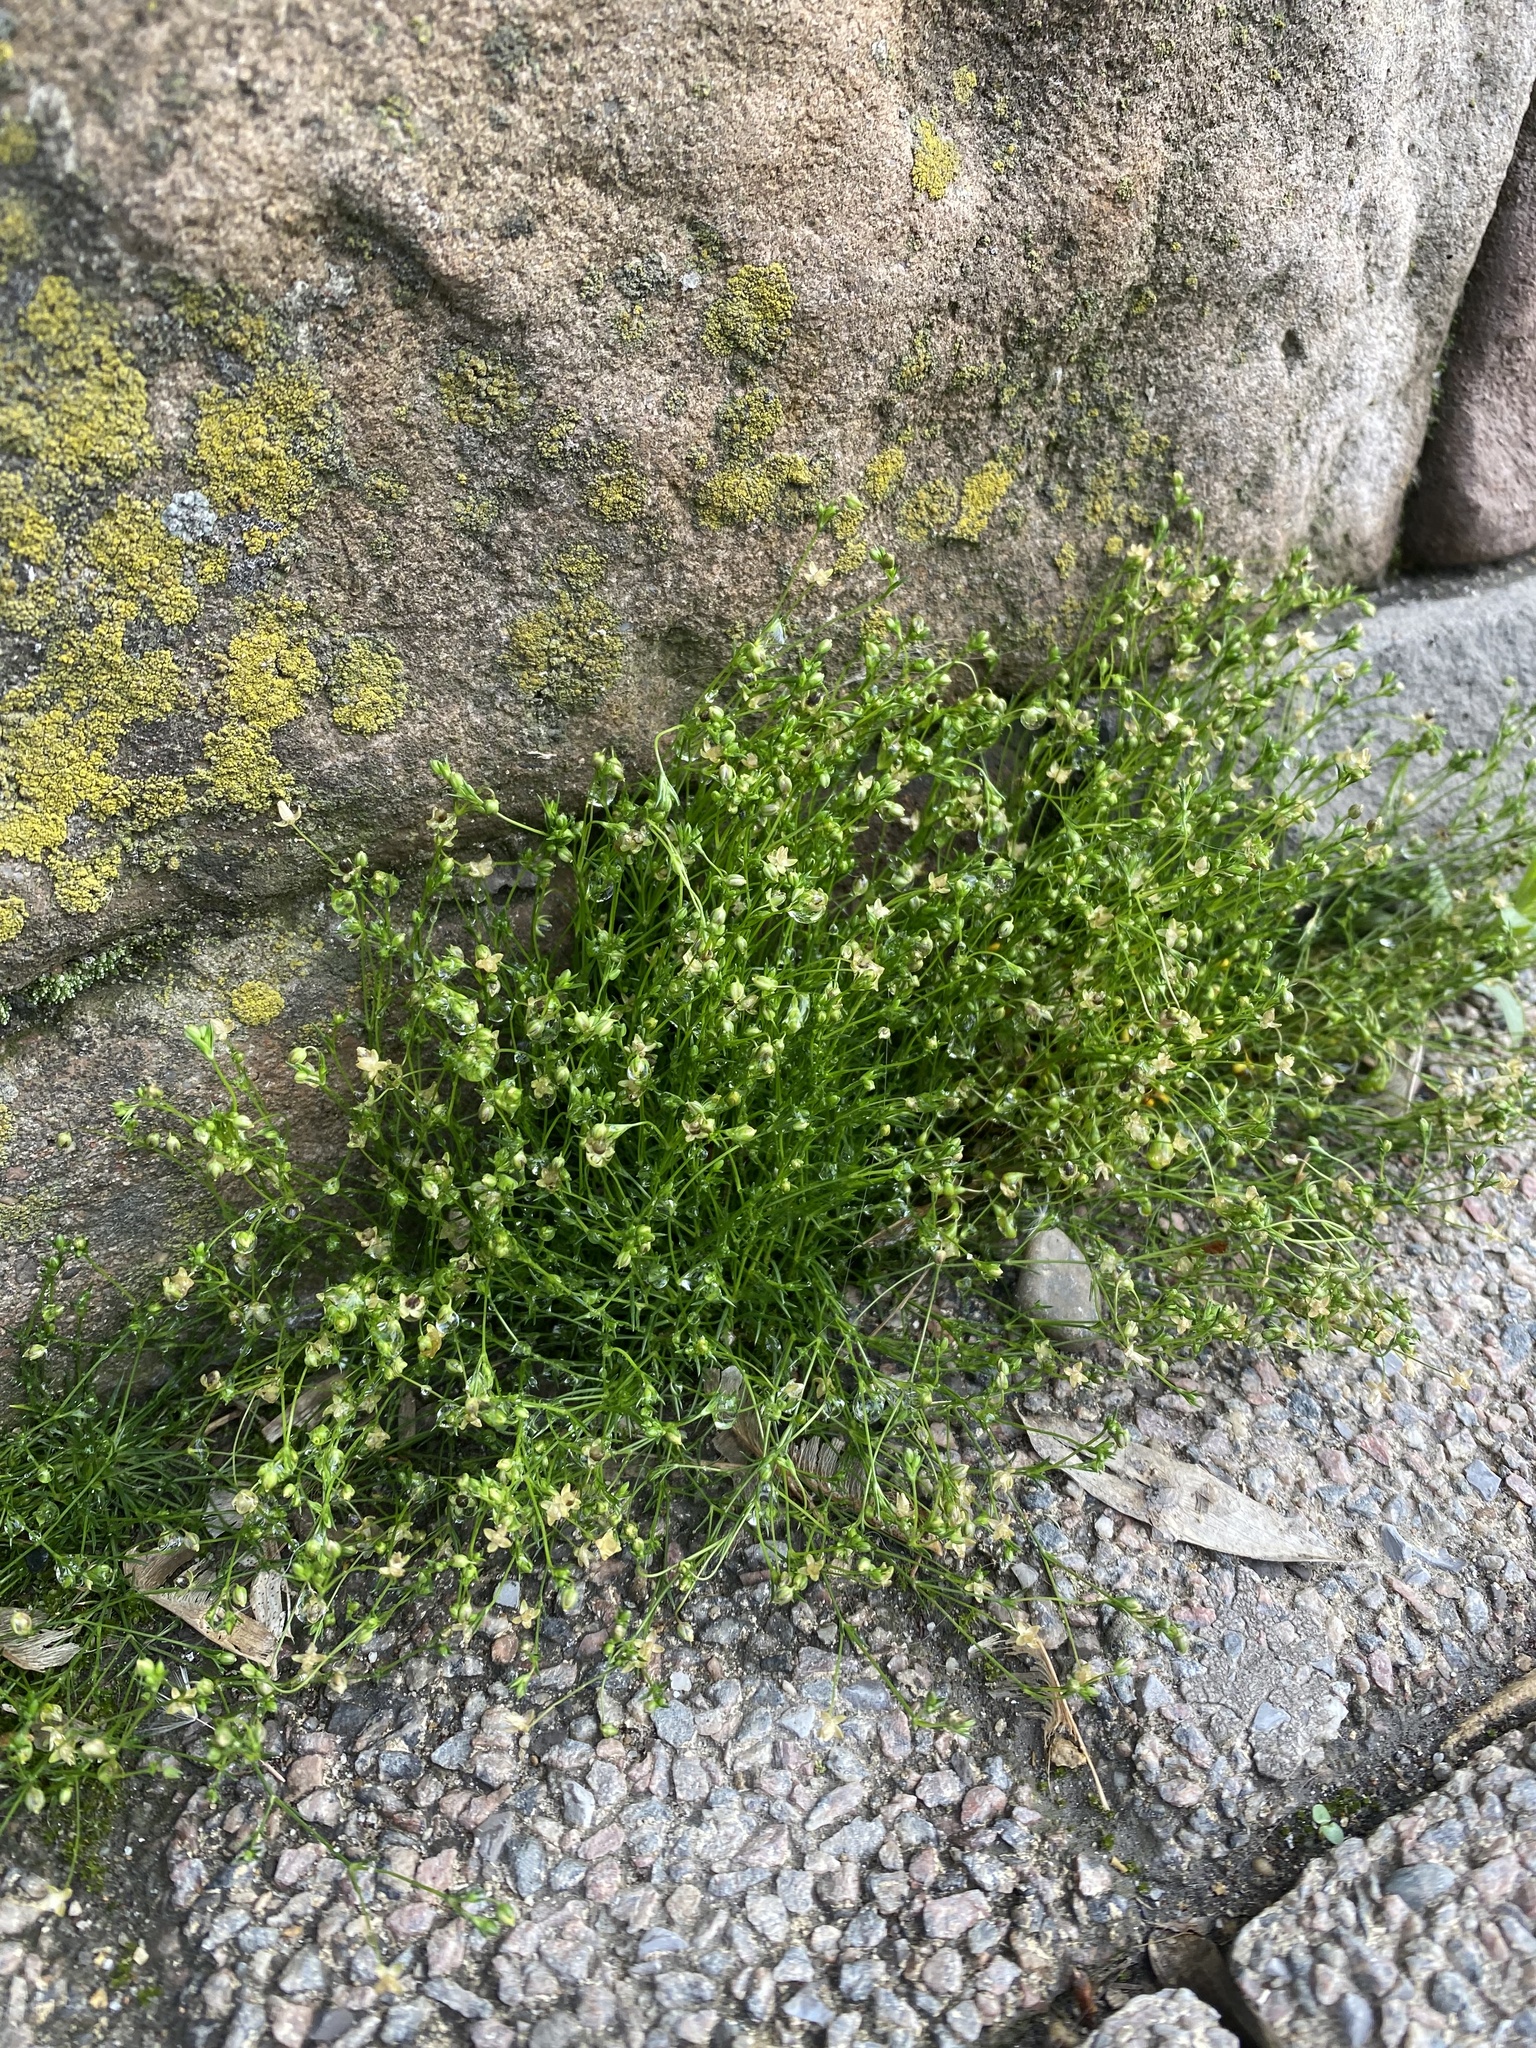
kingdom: Plantae
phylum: Tracheophyta
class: Magnoliopsida
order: Caryophyllales
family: Caryophyllaceae
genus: Sagina
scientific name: Sagina procumbens
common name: Procumbent pearlwort
